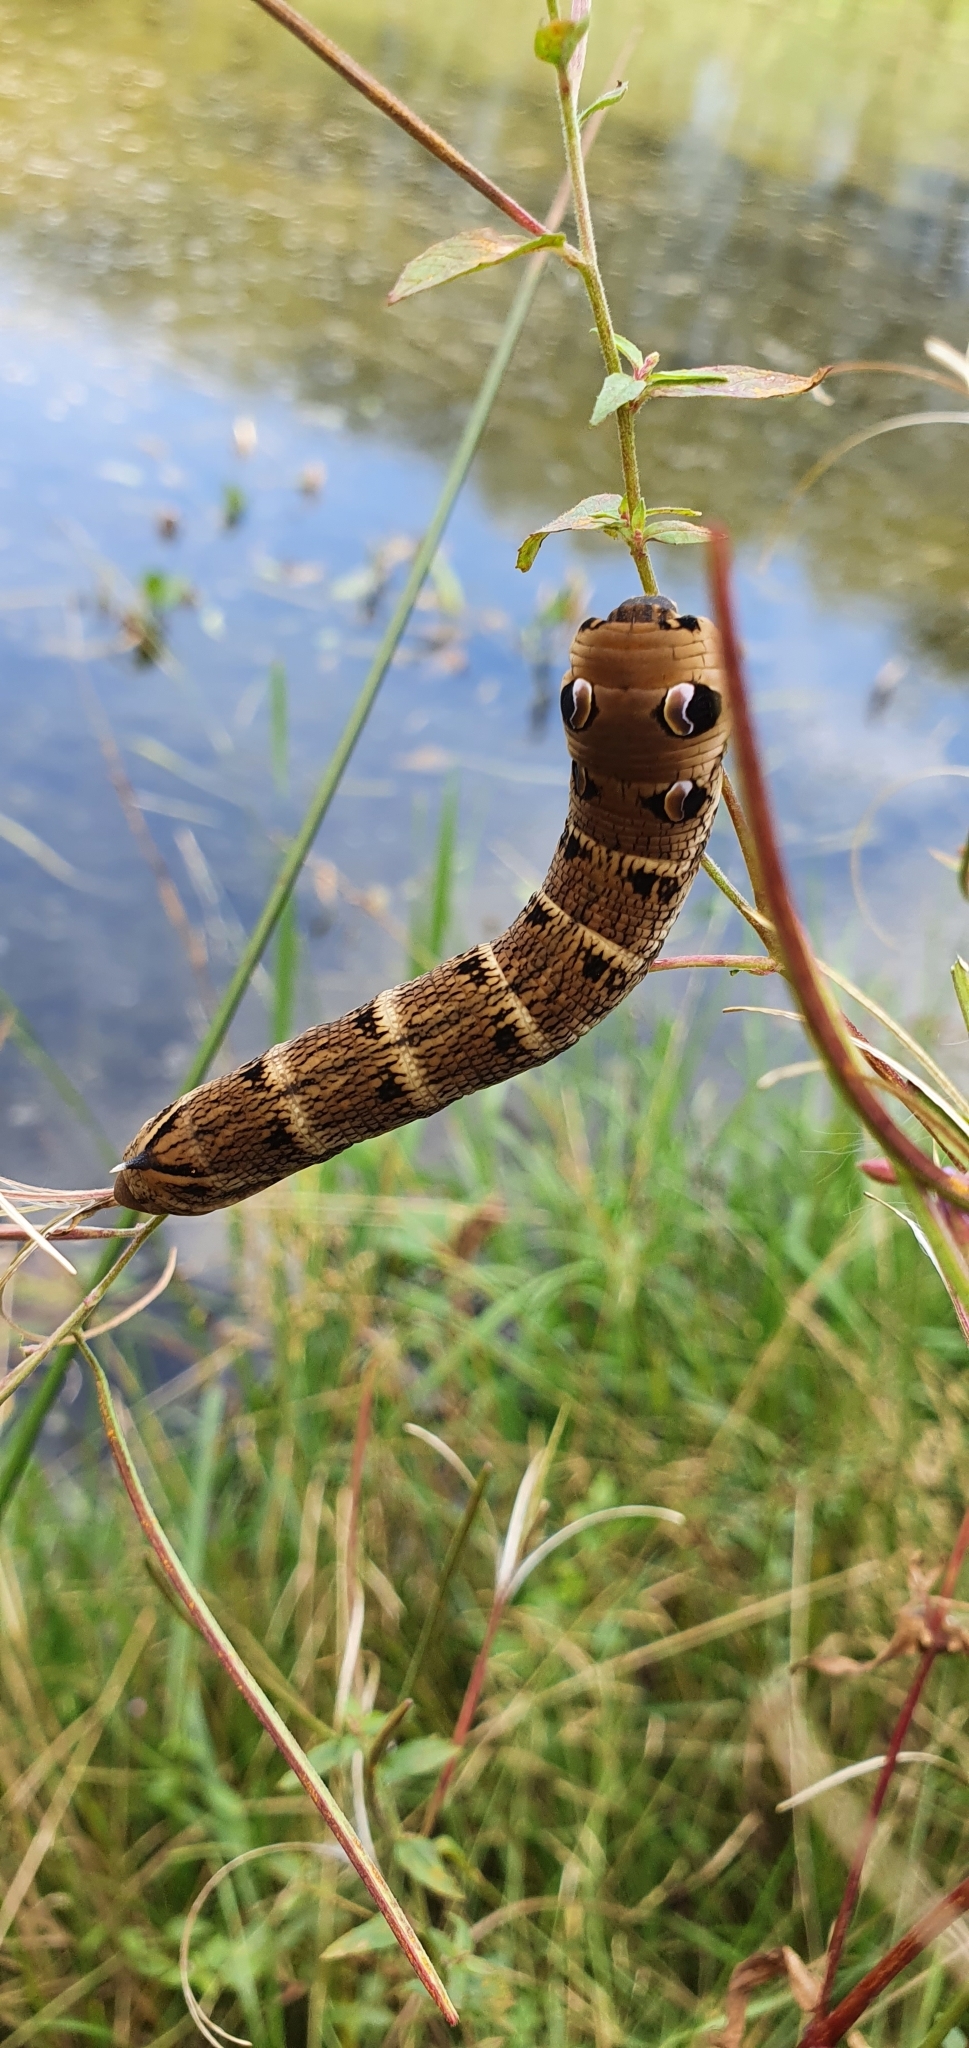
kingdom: Animalia
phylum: Arthropoda
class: Insecta
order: Lepidoptera
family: Sphingidae
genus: Deilephila
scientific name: Deilephila elpenor
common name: Elephant hawk-moth
